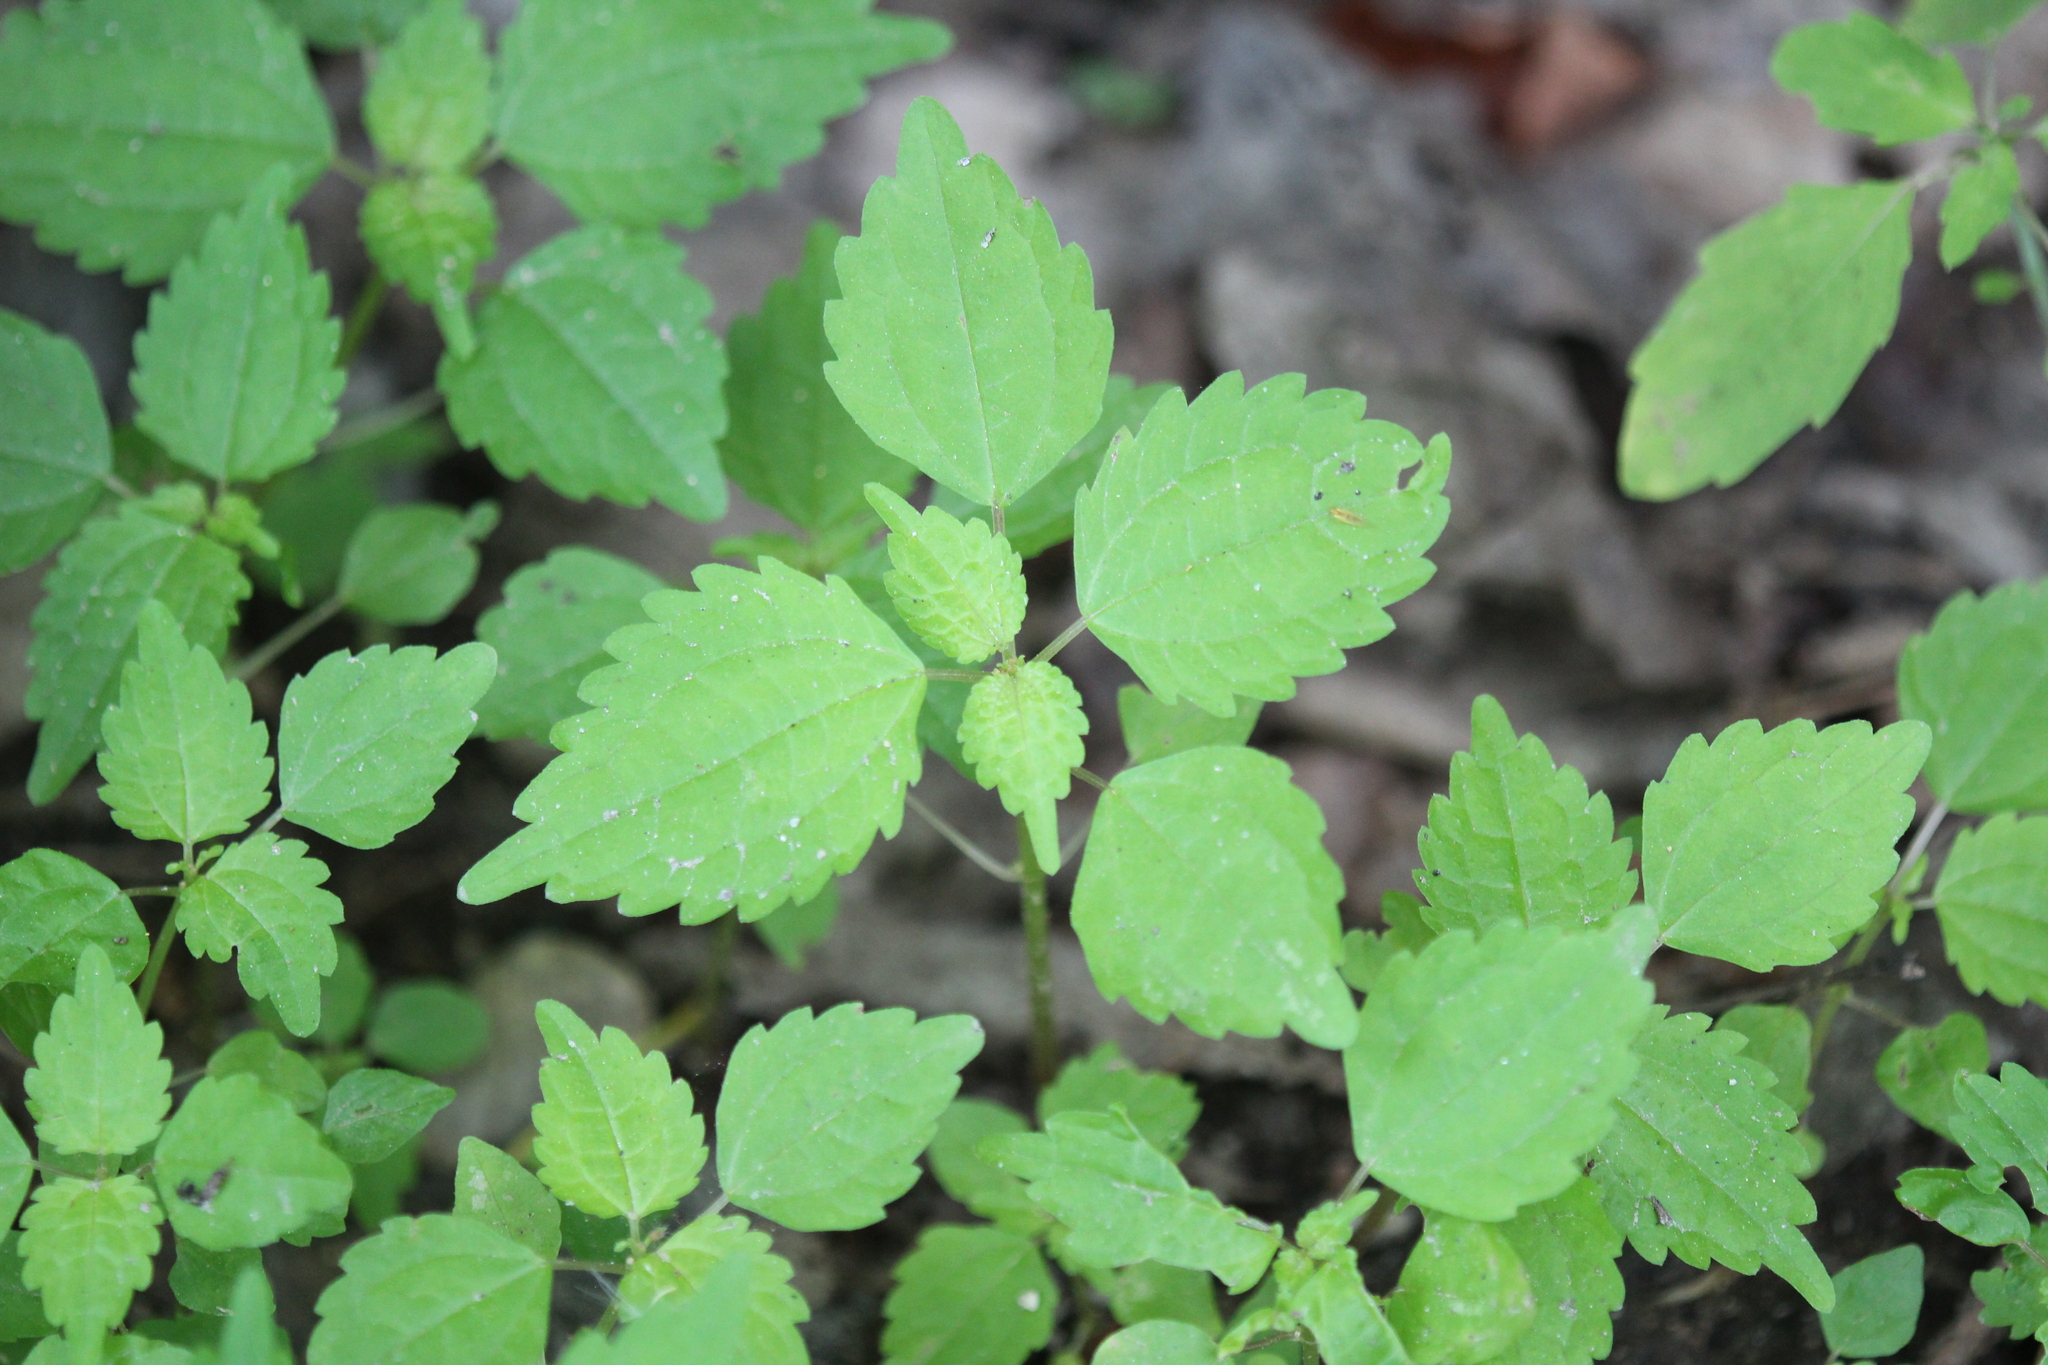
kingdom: Plantae
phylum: Tracheophyta
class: Magnoliopsida
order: Rosales
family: Urticaceae
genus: Pilea
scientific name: Pilea pumila
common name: Clearweed
